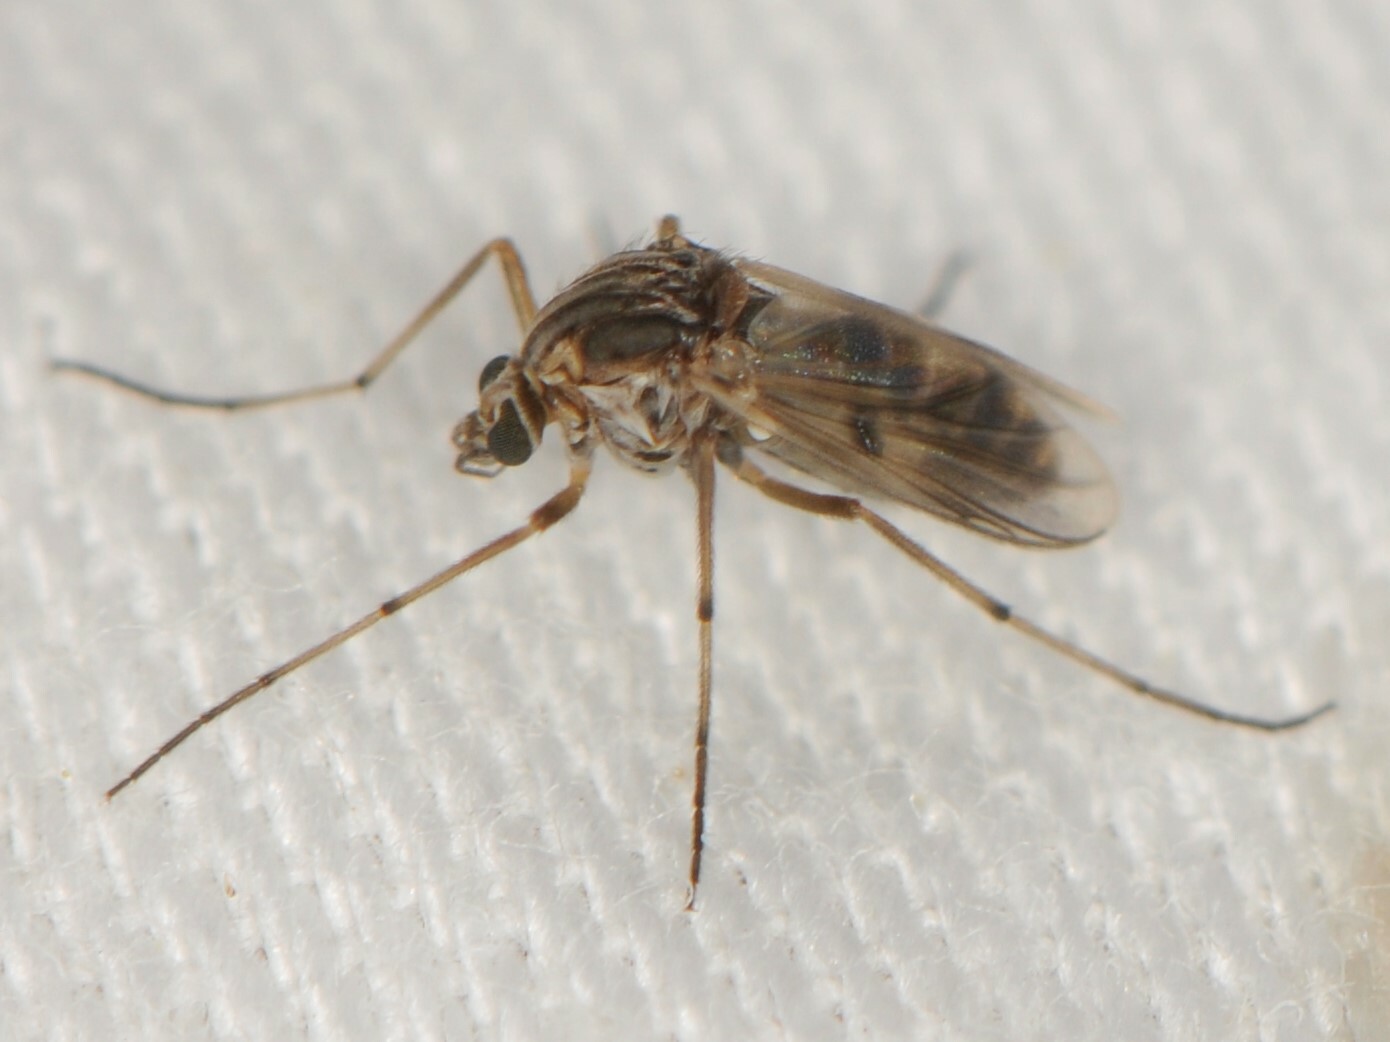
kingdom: Animalia
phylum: Arthropoda
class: Insecta
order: Diptera
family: Chironomidae
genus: Procladius
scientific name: Procladius
